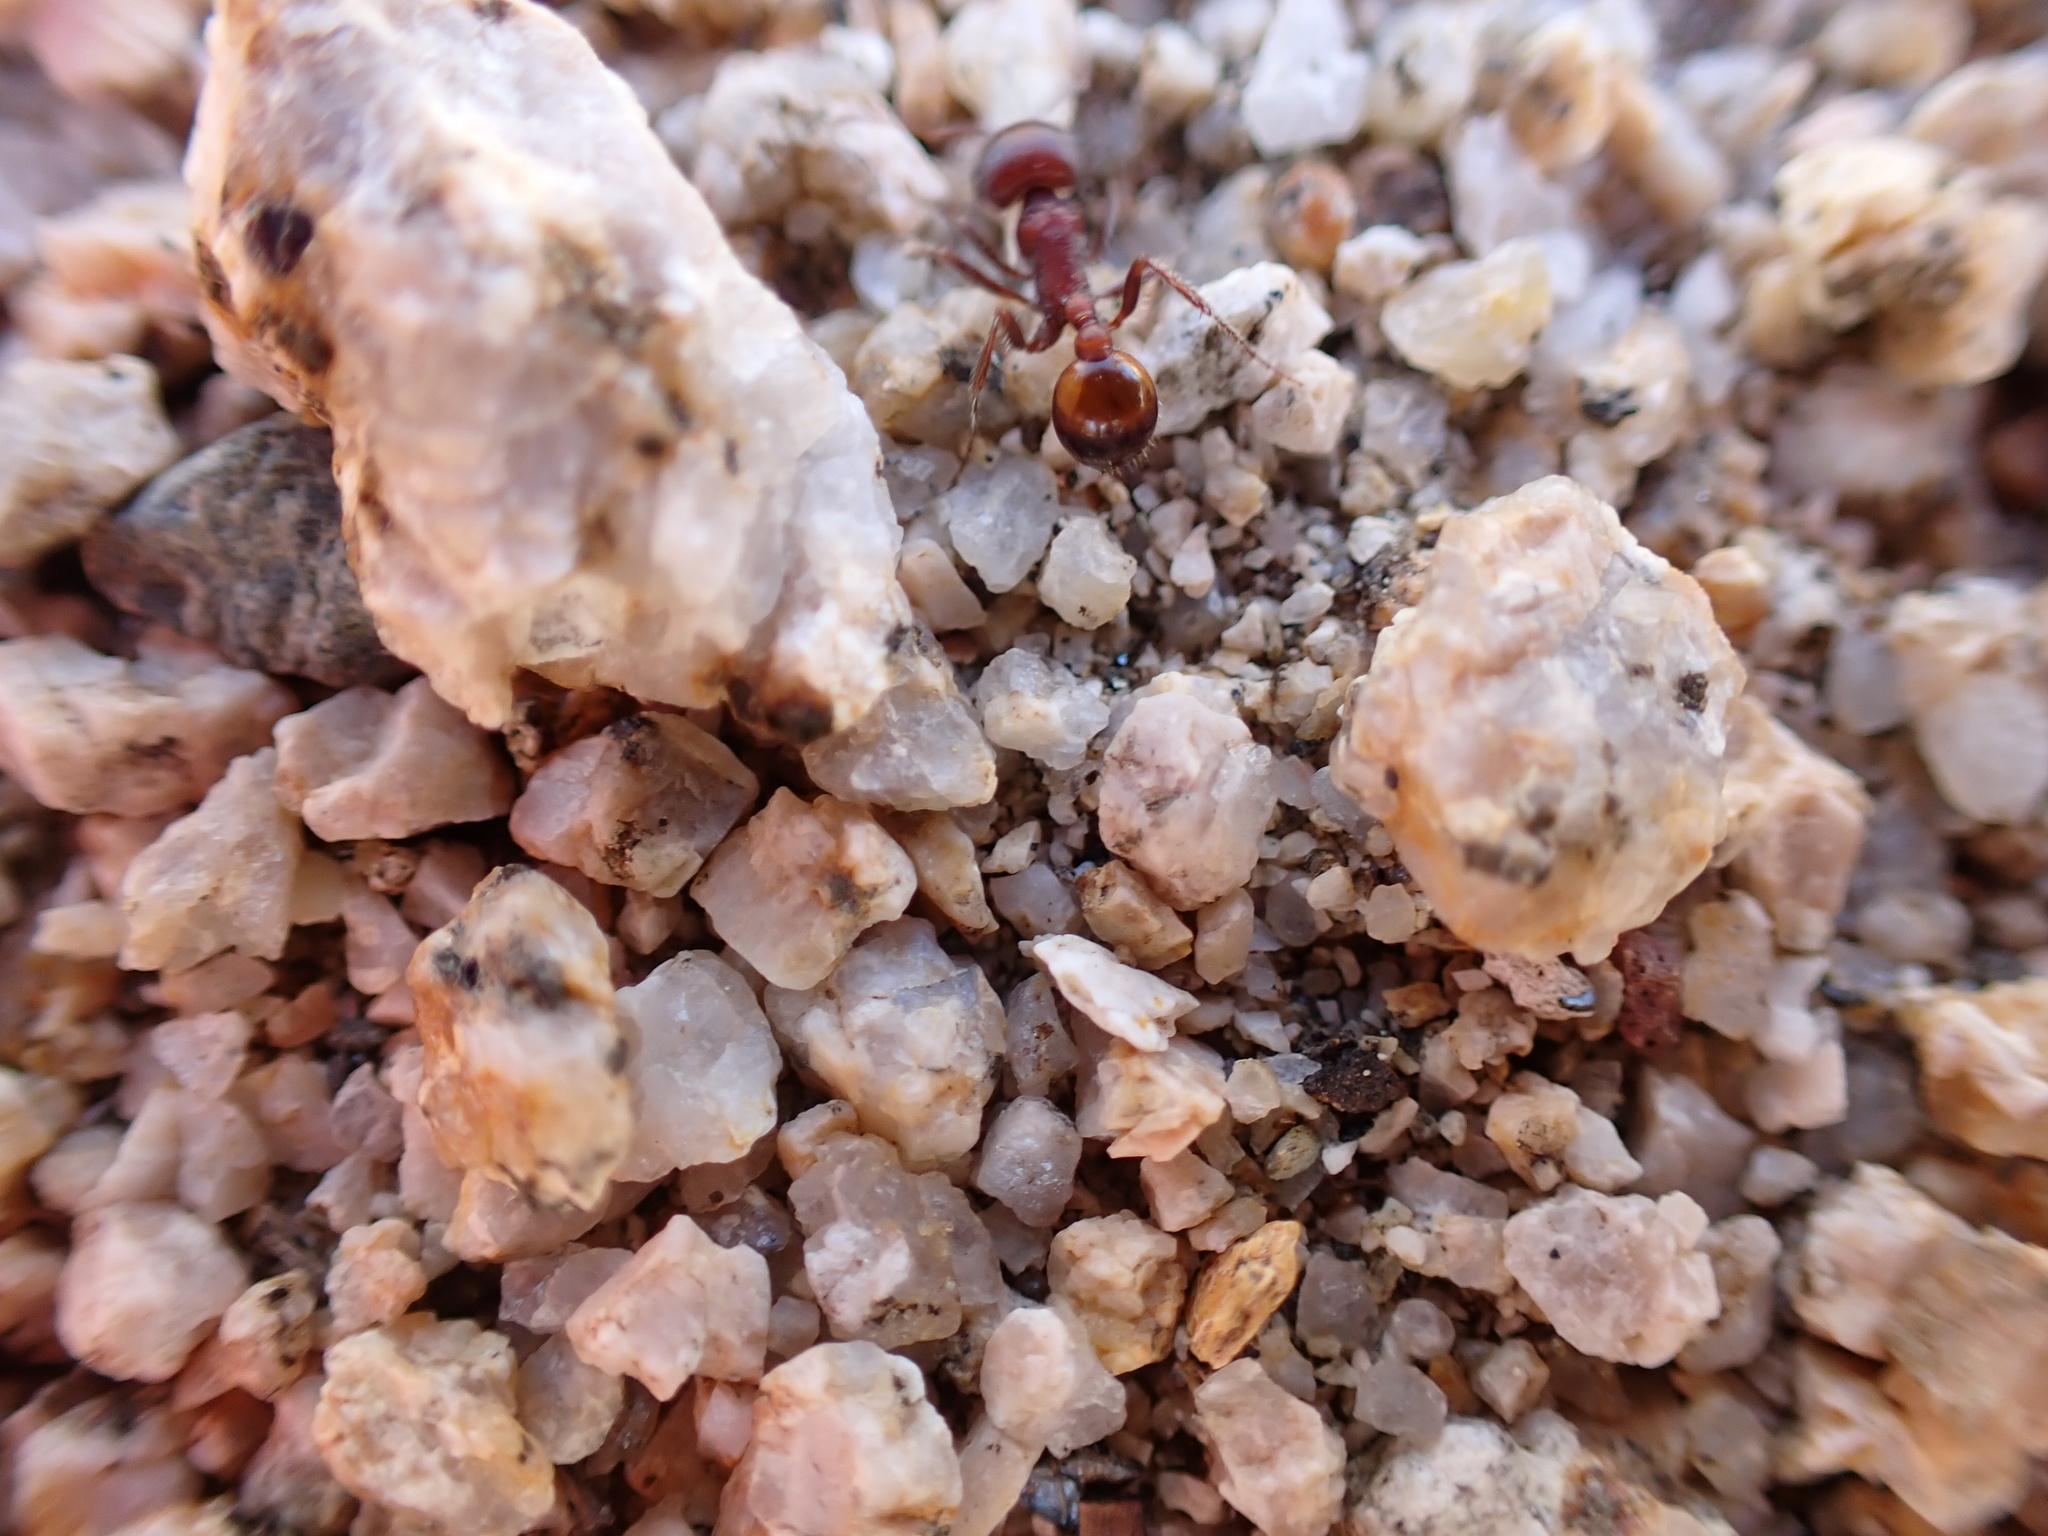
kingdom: Animalia
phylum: Arthropoda
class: Insecta
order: Hymenoptera
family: Formicidae
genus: Pogonomyrmex
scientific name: Pogonomyrmex rugosus
